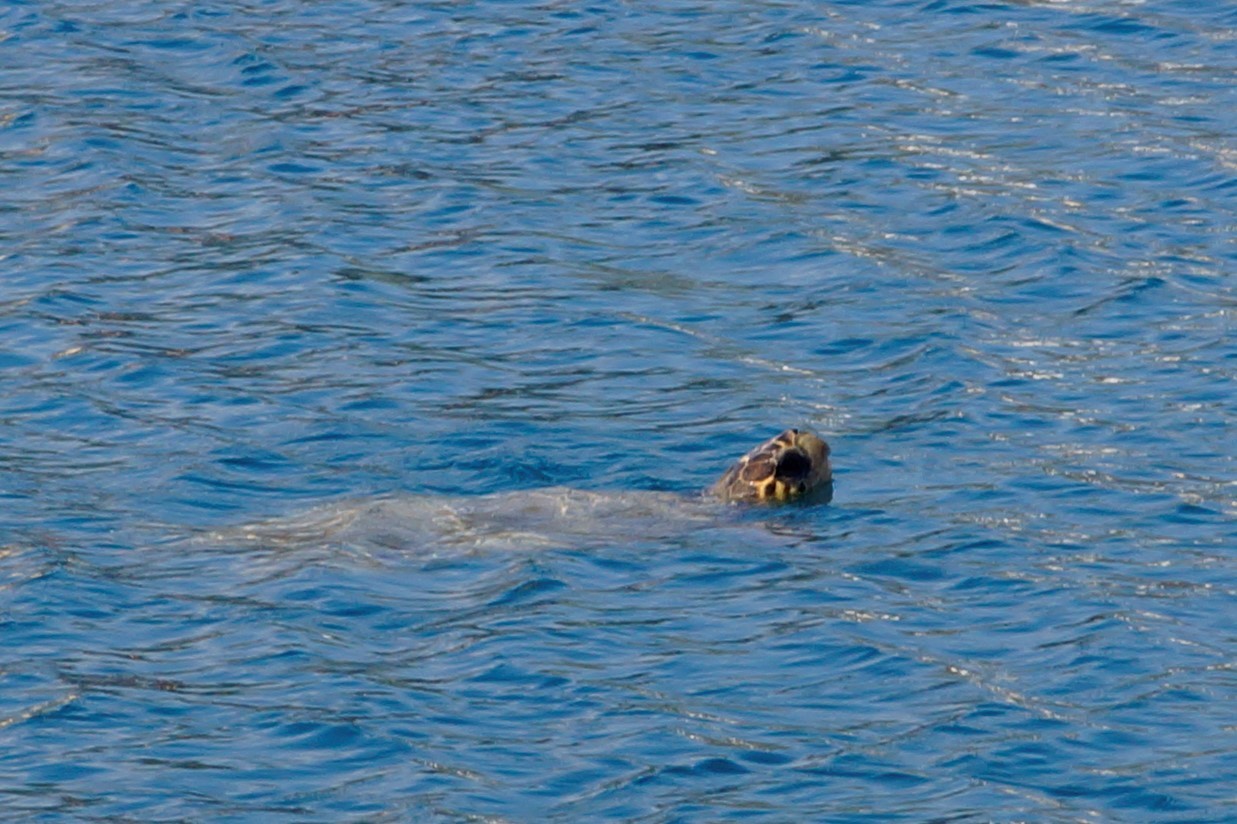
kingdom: Animalia
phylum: Chordata
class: Testudines
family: Cheloniidae
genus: Caretta
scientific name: Caretta caretta
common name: Loggerhead sea turtle
